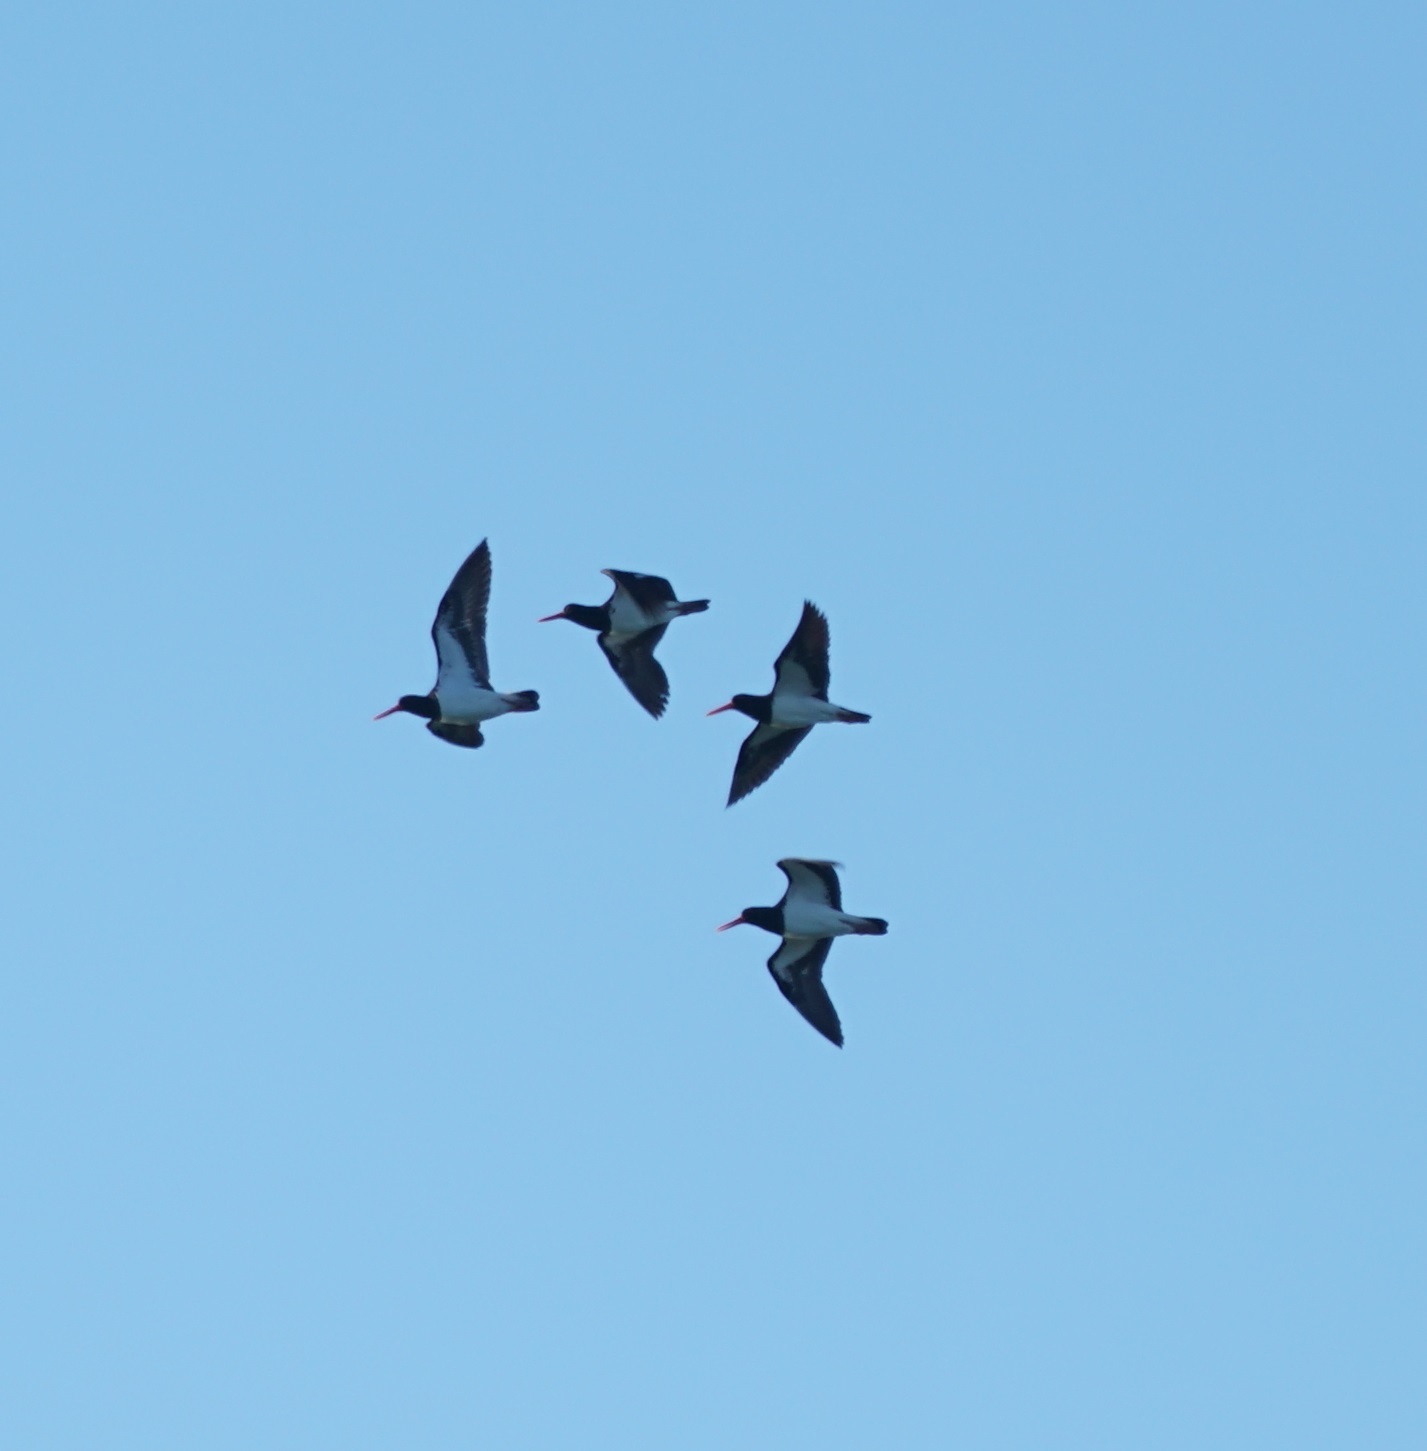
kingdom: Animalia
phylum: Chordata
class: Aves
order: Charadriiformes
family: Haematopodidae
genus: Haematopus
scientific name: Haematopus longirostris
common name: Pied oystercatcher
